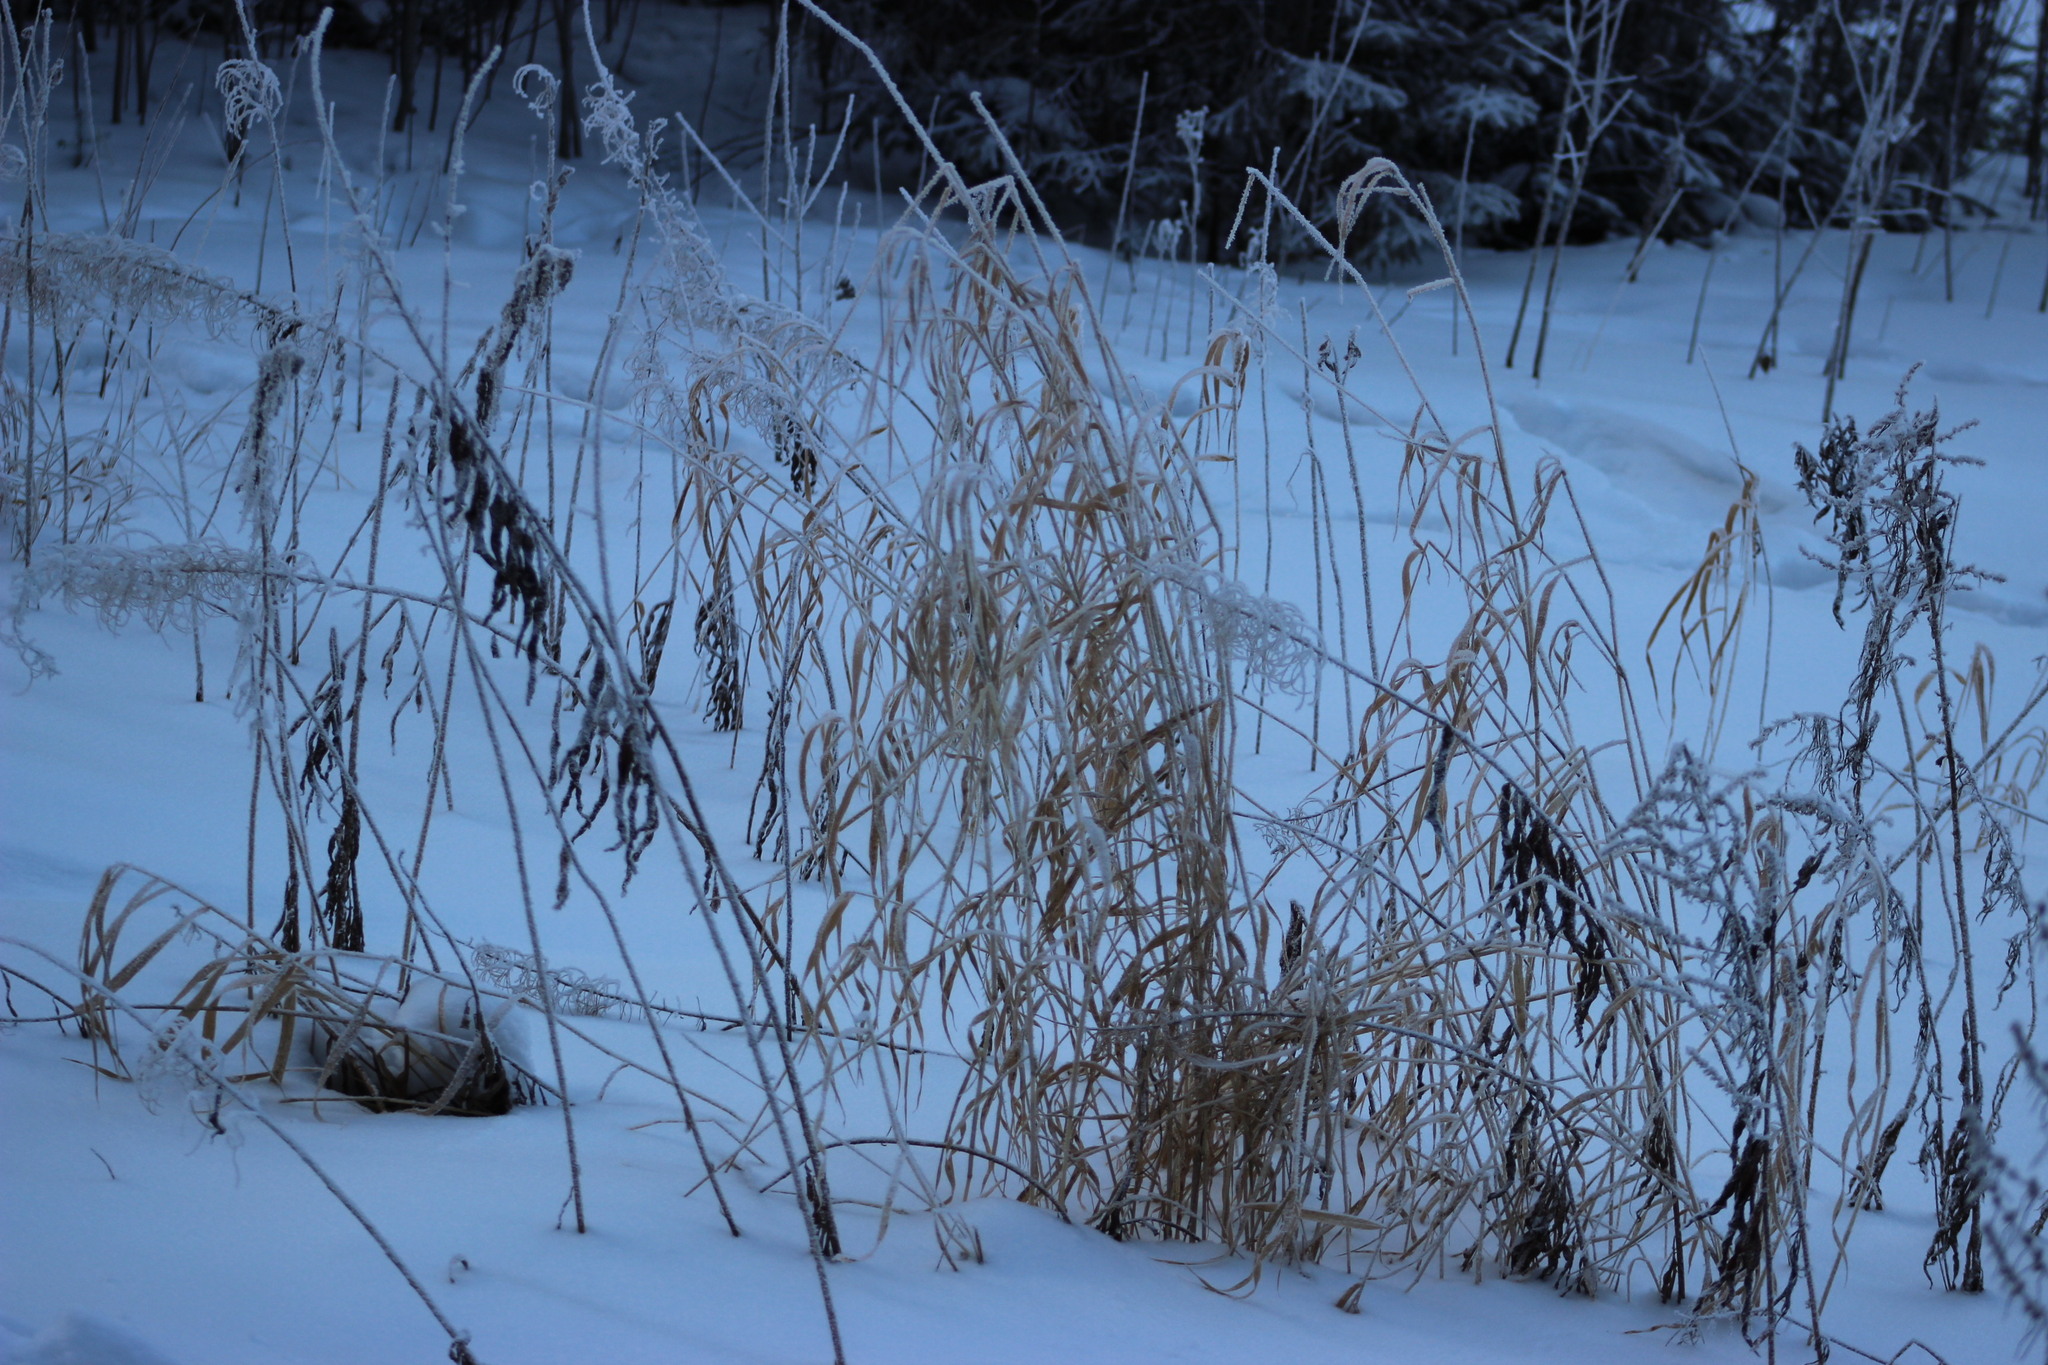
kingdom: Plantae
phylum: Tracheophyta
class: Liliopsida
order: Poales
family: Poaceae
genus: Phalaris
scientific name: Phalaris arundinacea
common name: Reed canary-grass
